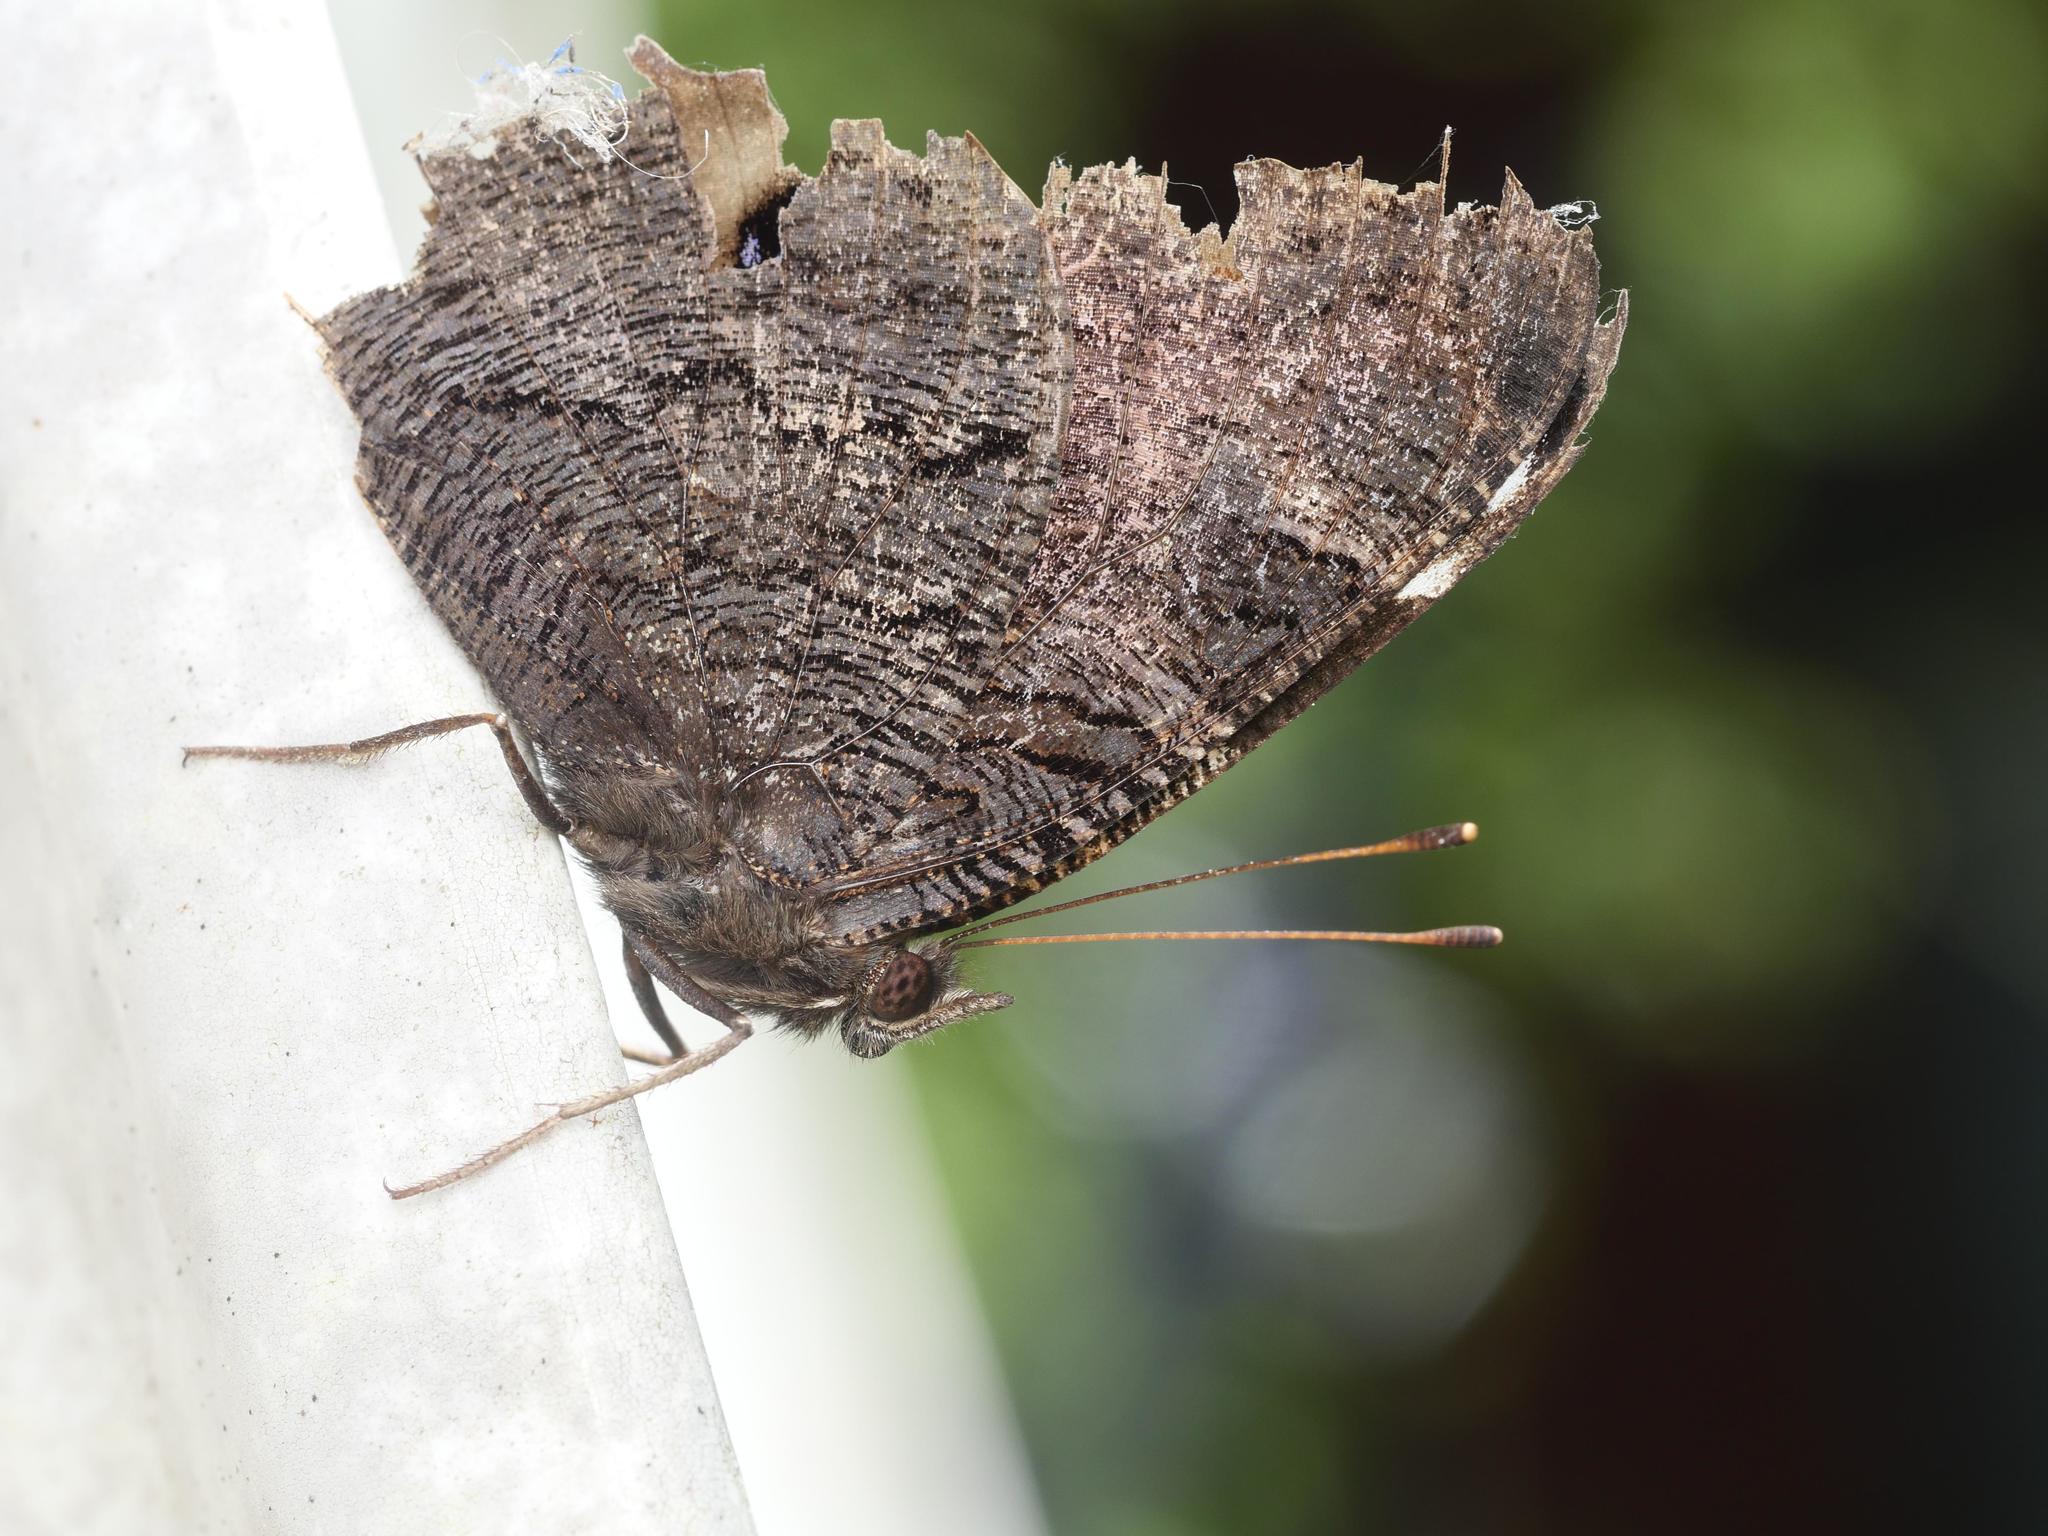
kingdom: Animalia
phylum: Arthropoda
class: Insecta
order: Lepidoptera
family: Nymphalidae
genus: Aglais
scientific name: Aglais io
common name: Peacock
